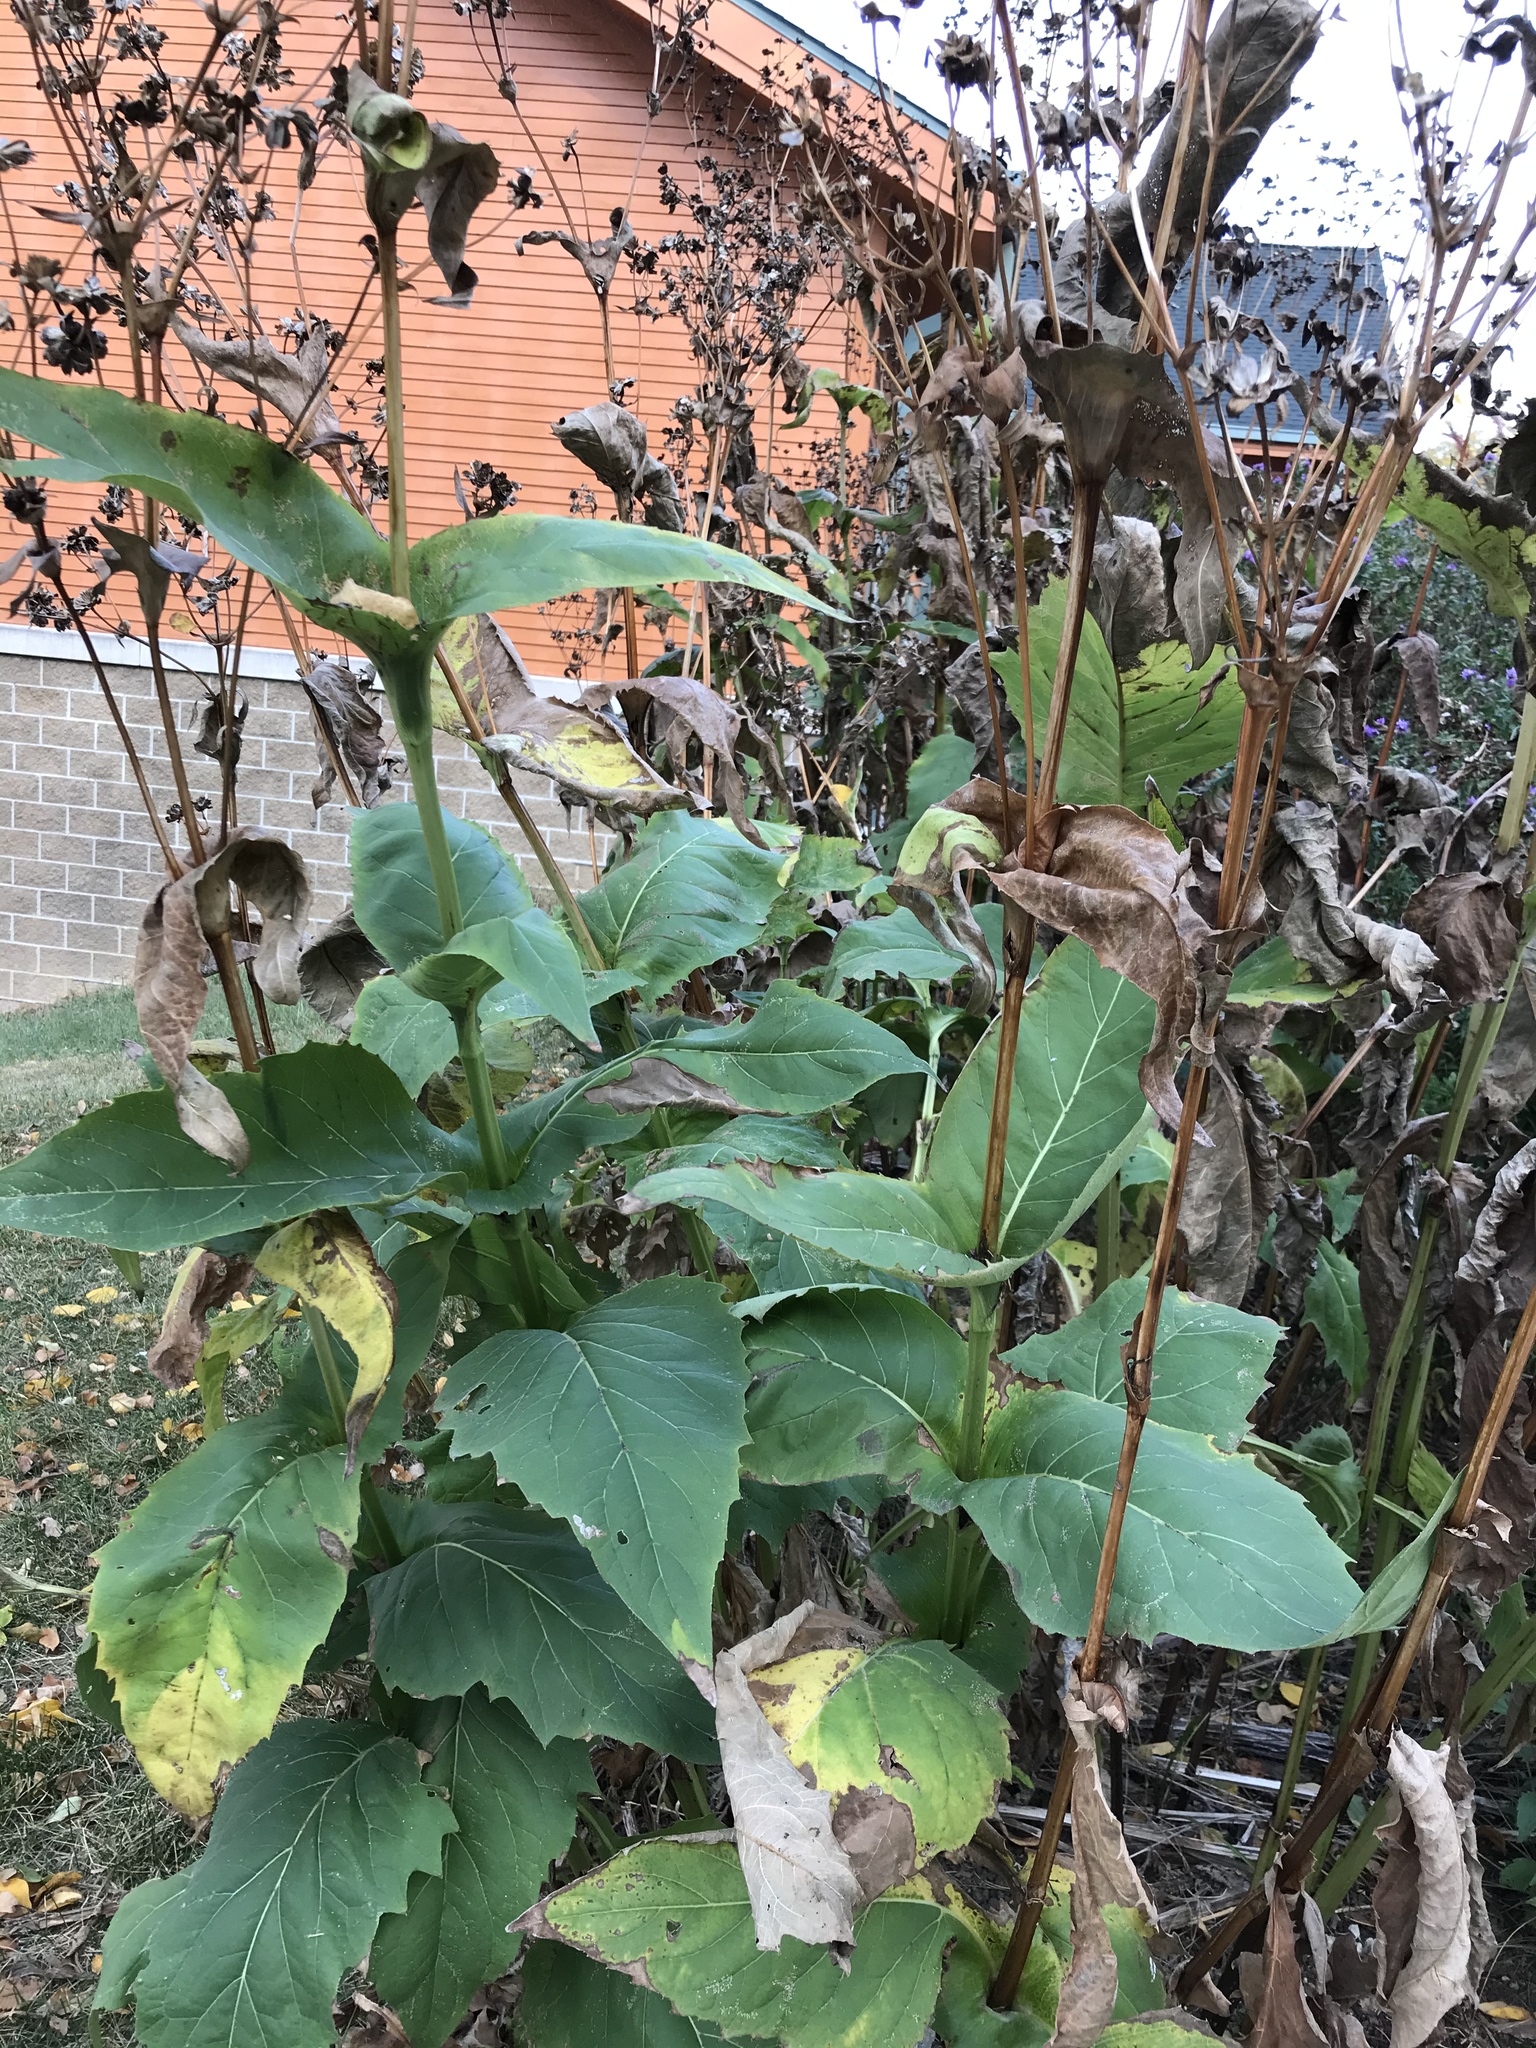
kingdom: Plantae
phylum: Tracheophyta
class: Magnoliopsida
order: Asterales
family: Asteraceae
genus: Silphium
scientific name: Silphium perfoliatum
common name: Cup-plant
